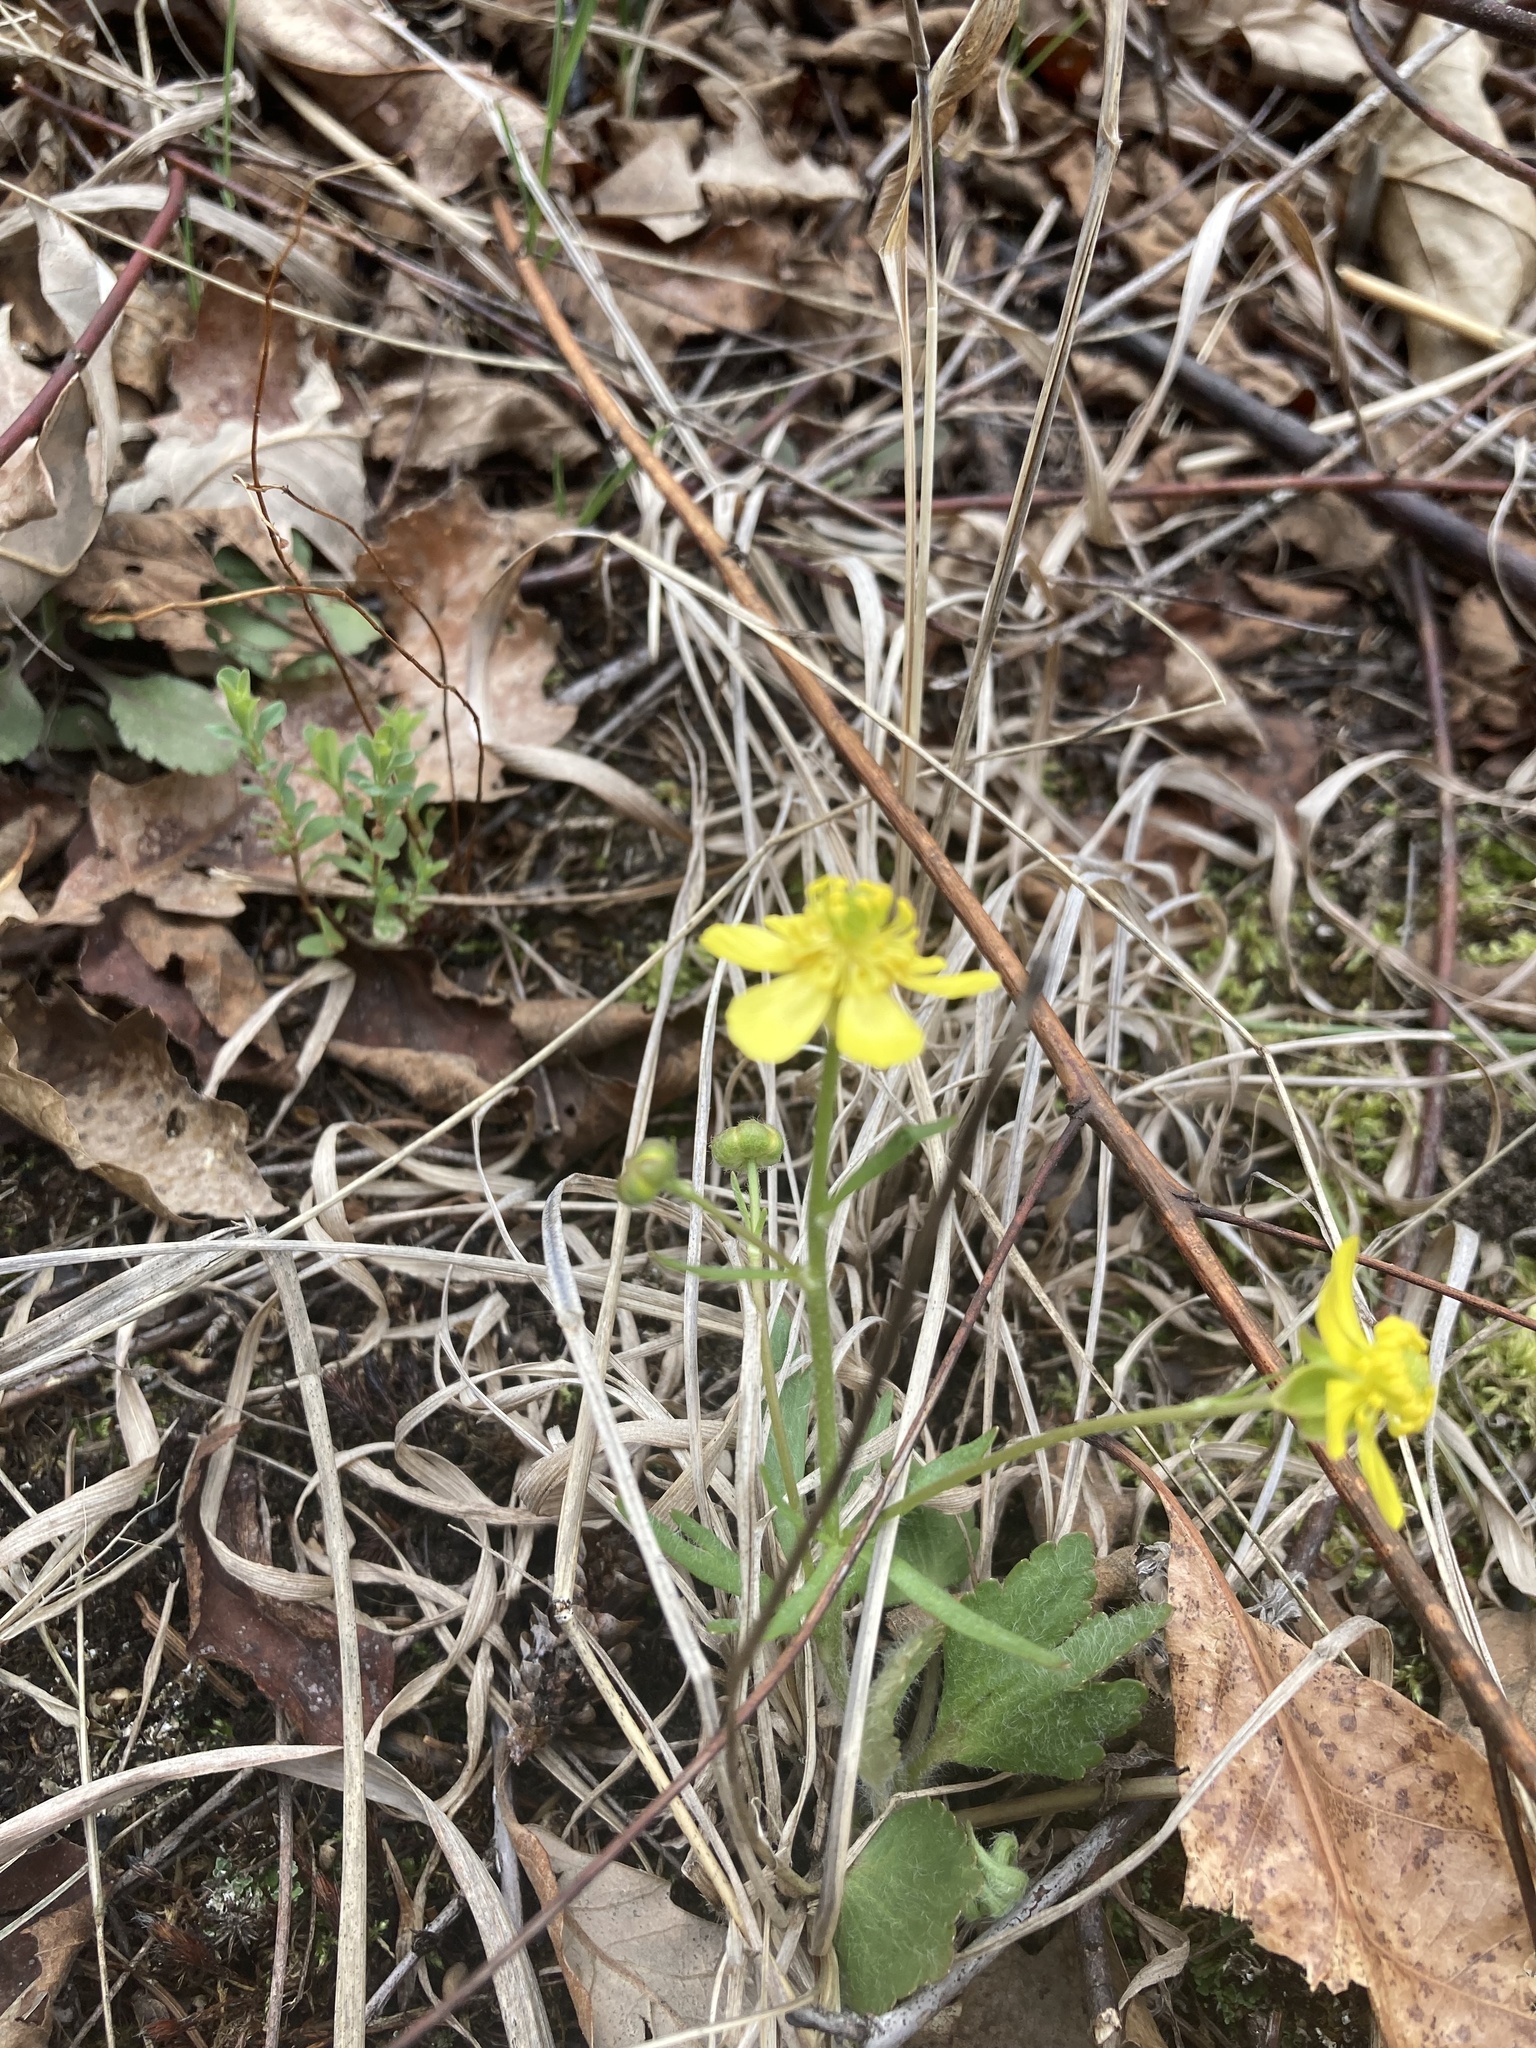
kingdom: Plantae
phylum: Tracheophyta
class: Magnoliopsida
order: Ranunculales
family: Ranunculaceae
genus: Ranunculus
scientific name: Ranunculus rhomboideus
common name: Prairie buttercup
